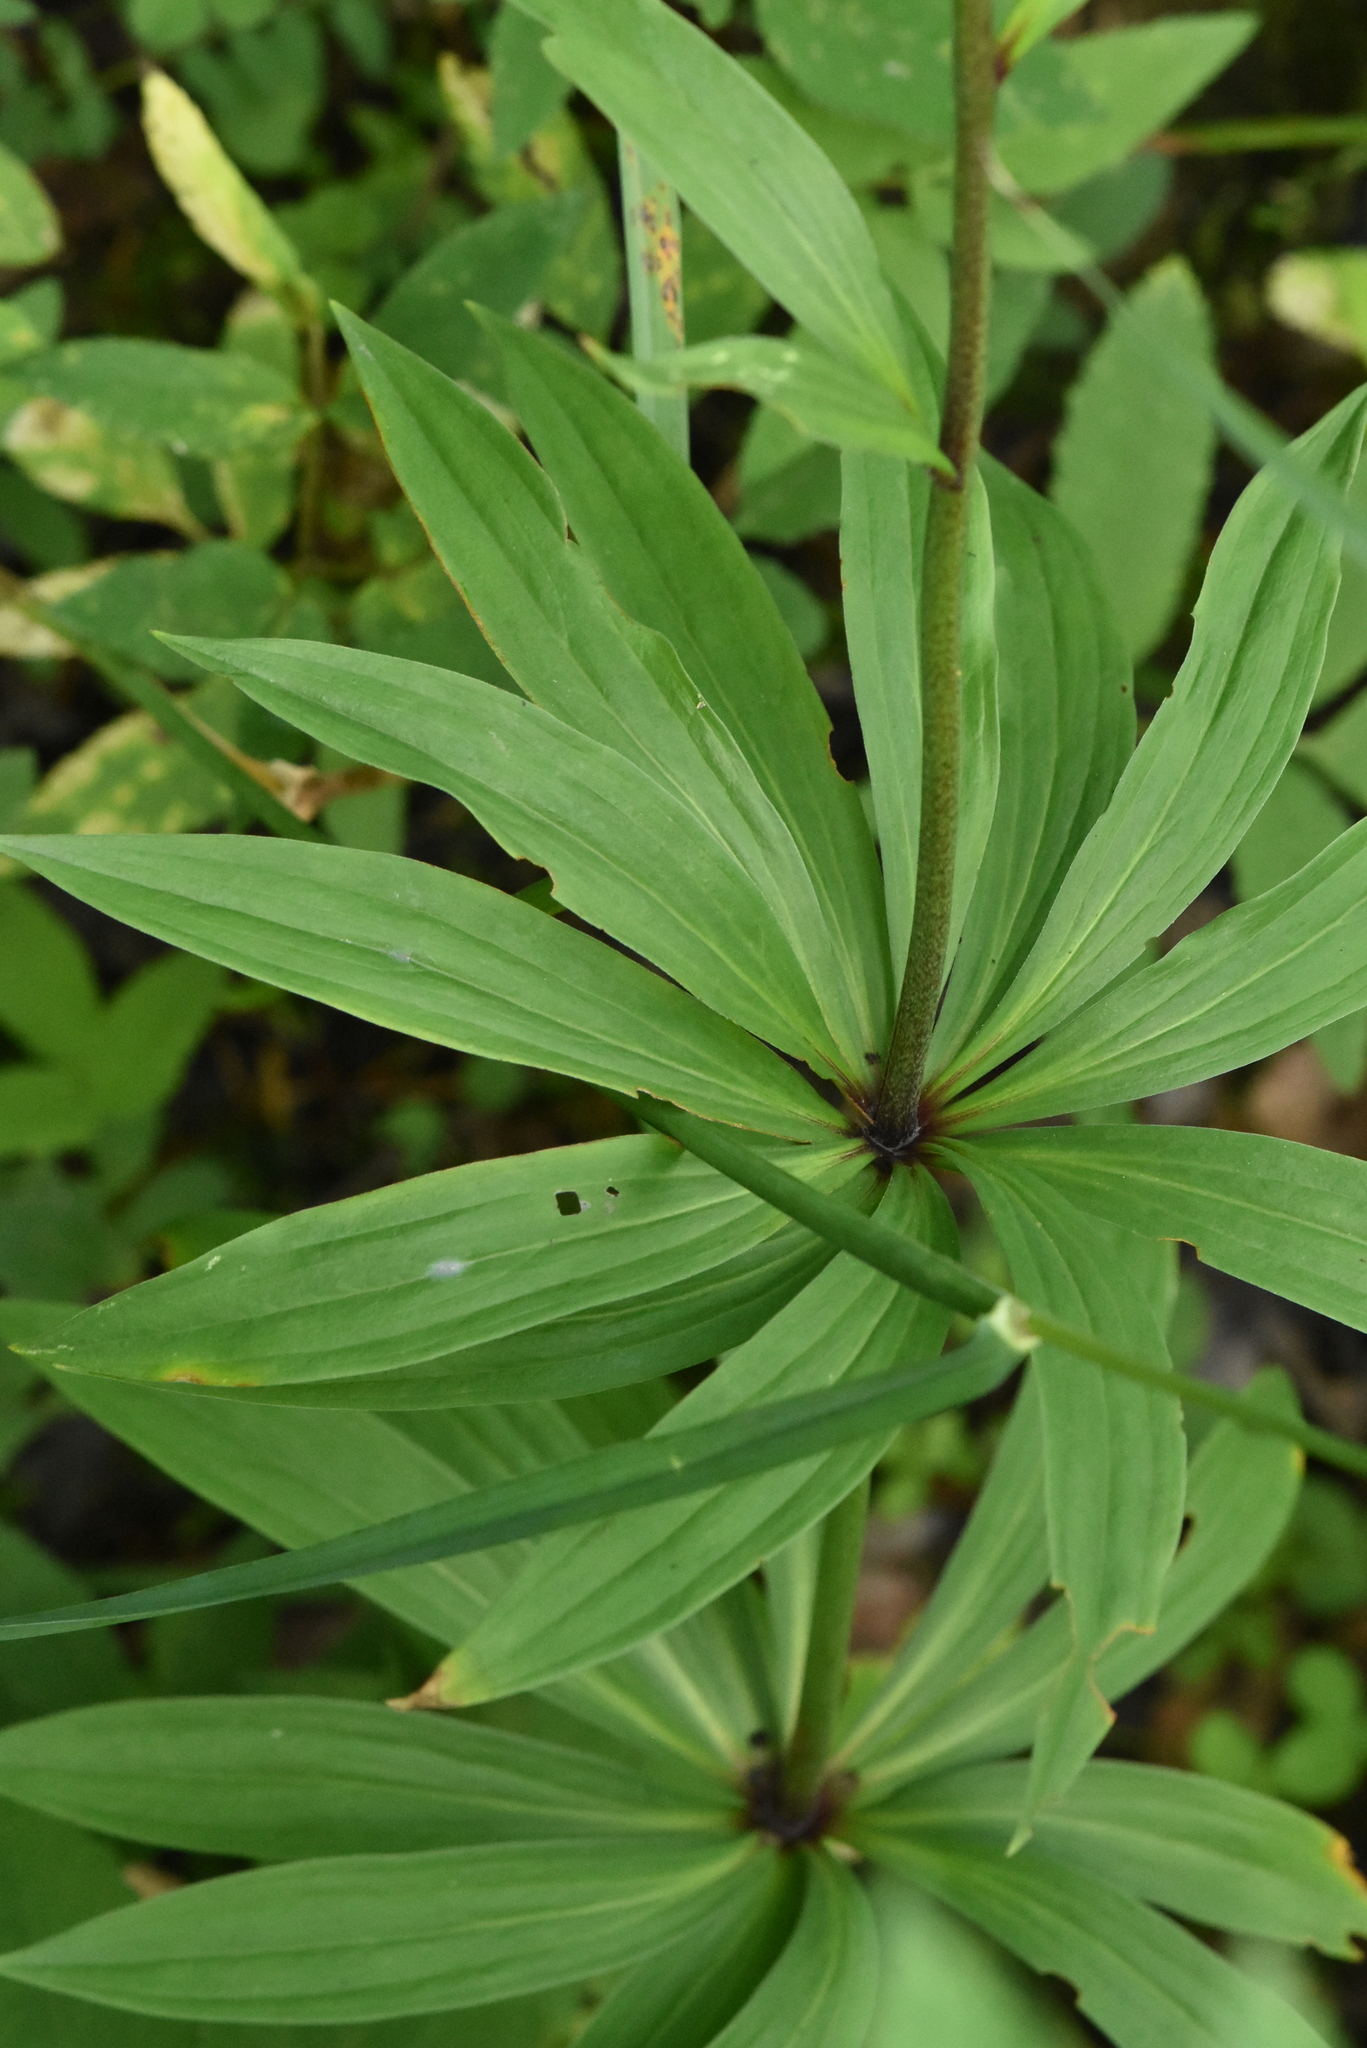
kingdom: Plantae
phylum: Tracheophyta
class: Liliopsida
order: Liliales
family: Liliaceae
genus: Lilium
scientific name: Lilium martagon
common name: Martagon lily
